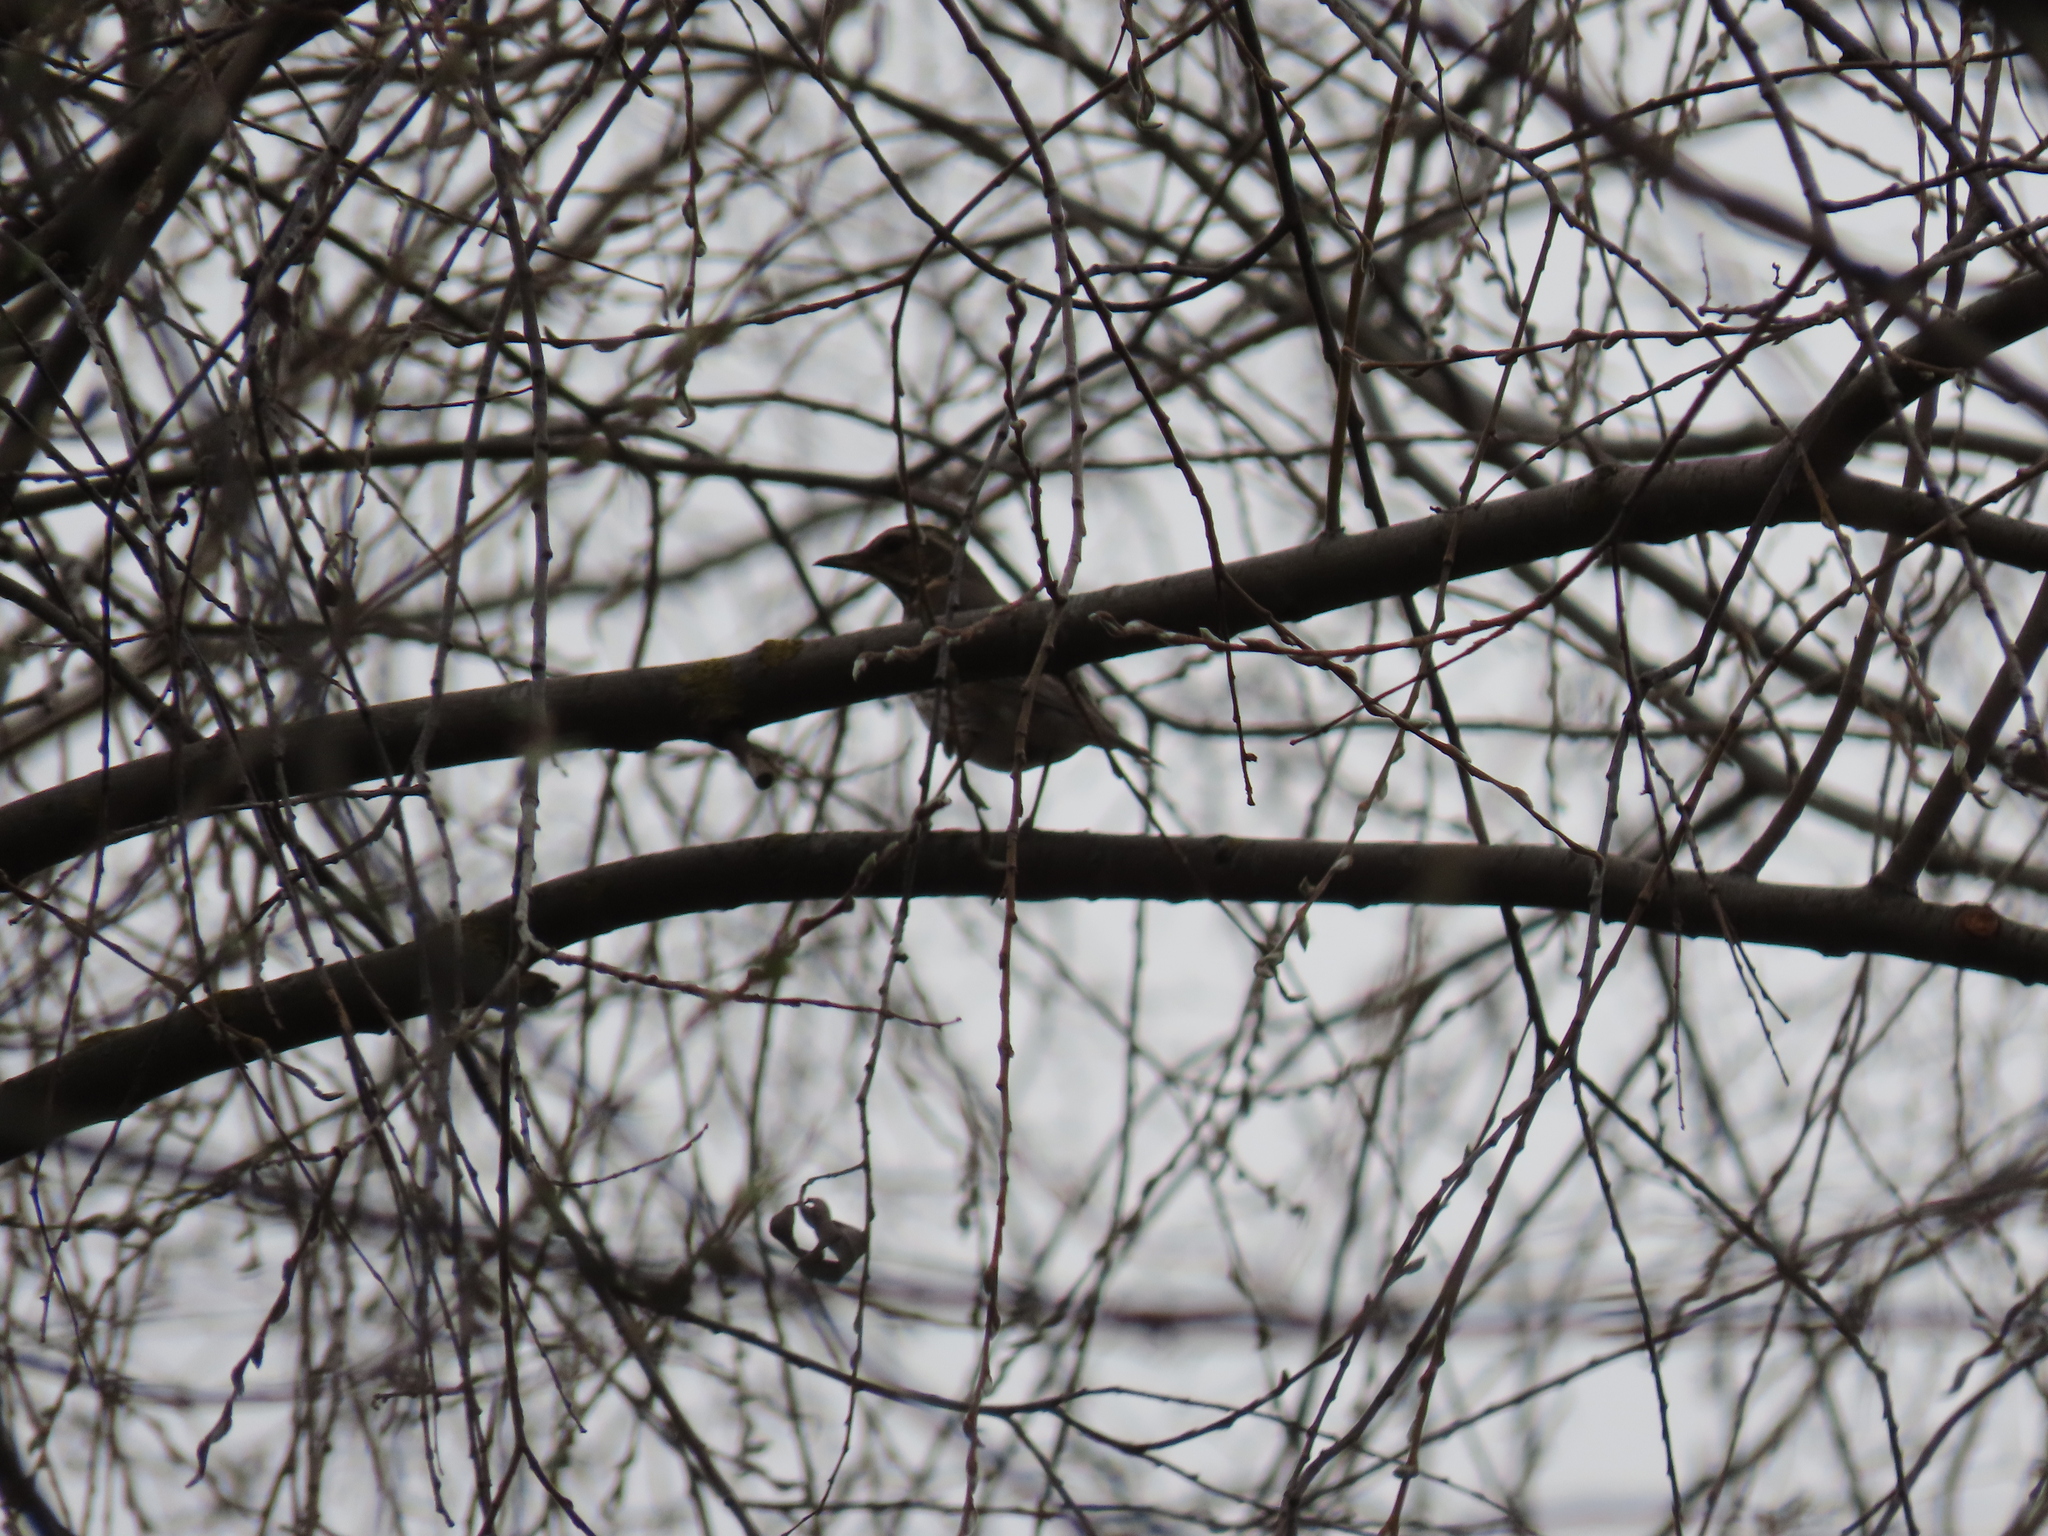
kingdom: Animalia
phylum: Chordata
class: Aves
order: Passeriformes
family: Turdidae
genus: Turdus
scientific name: Turdus iliacus
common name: Redwing
